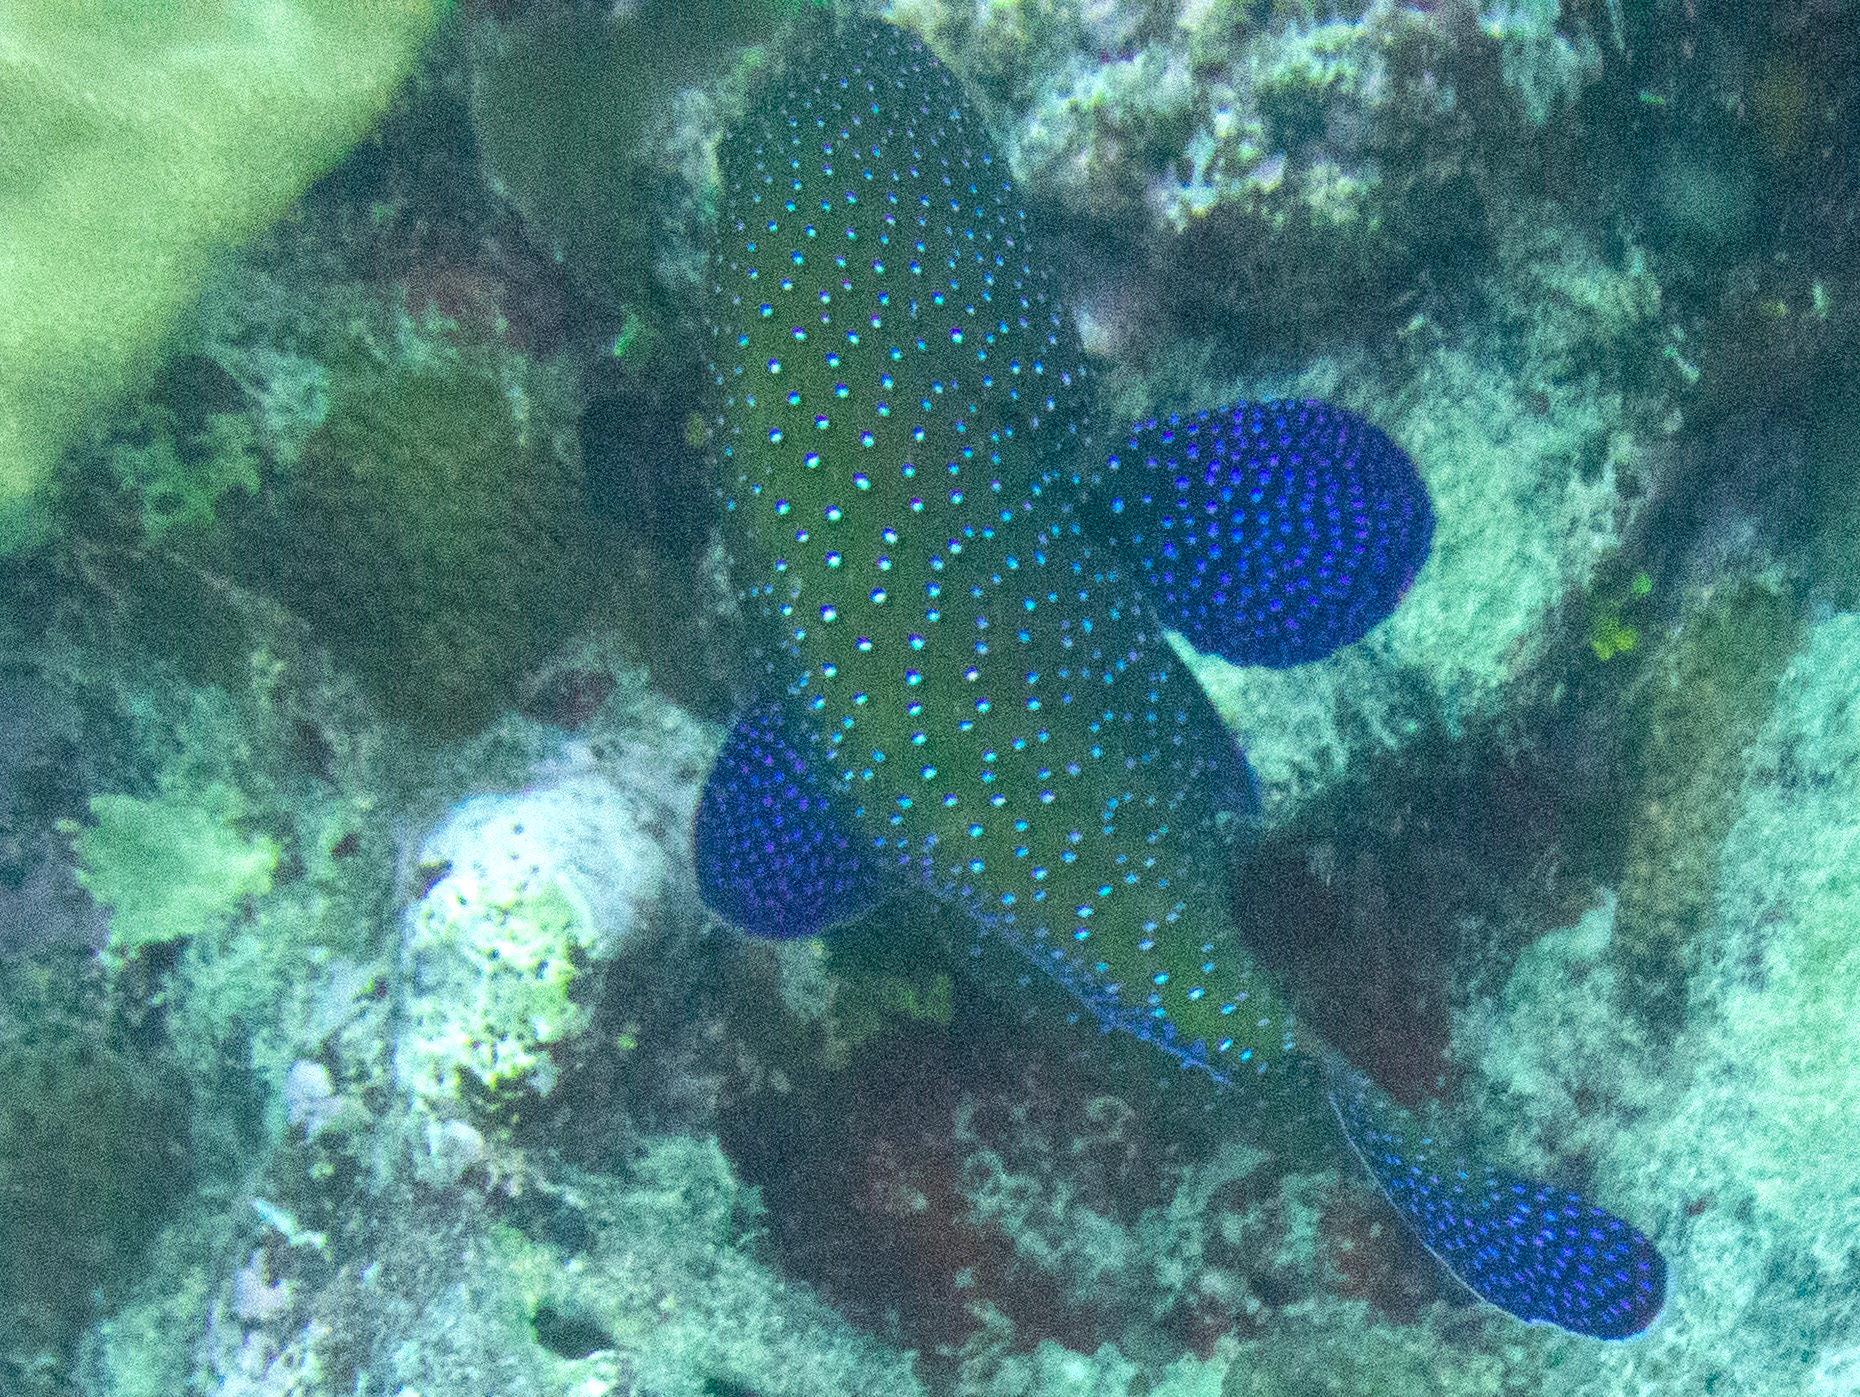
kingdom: Animalia
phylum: Chordata
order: Perciformes
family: Serranidae
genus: Cephalopholis
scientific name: Cephalopholis argus
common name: Peacock grouper
